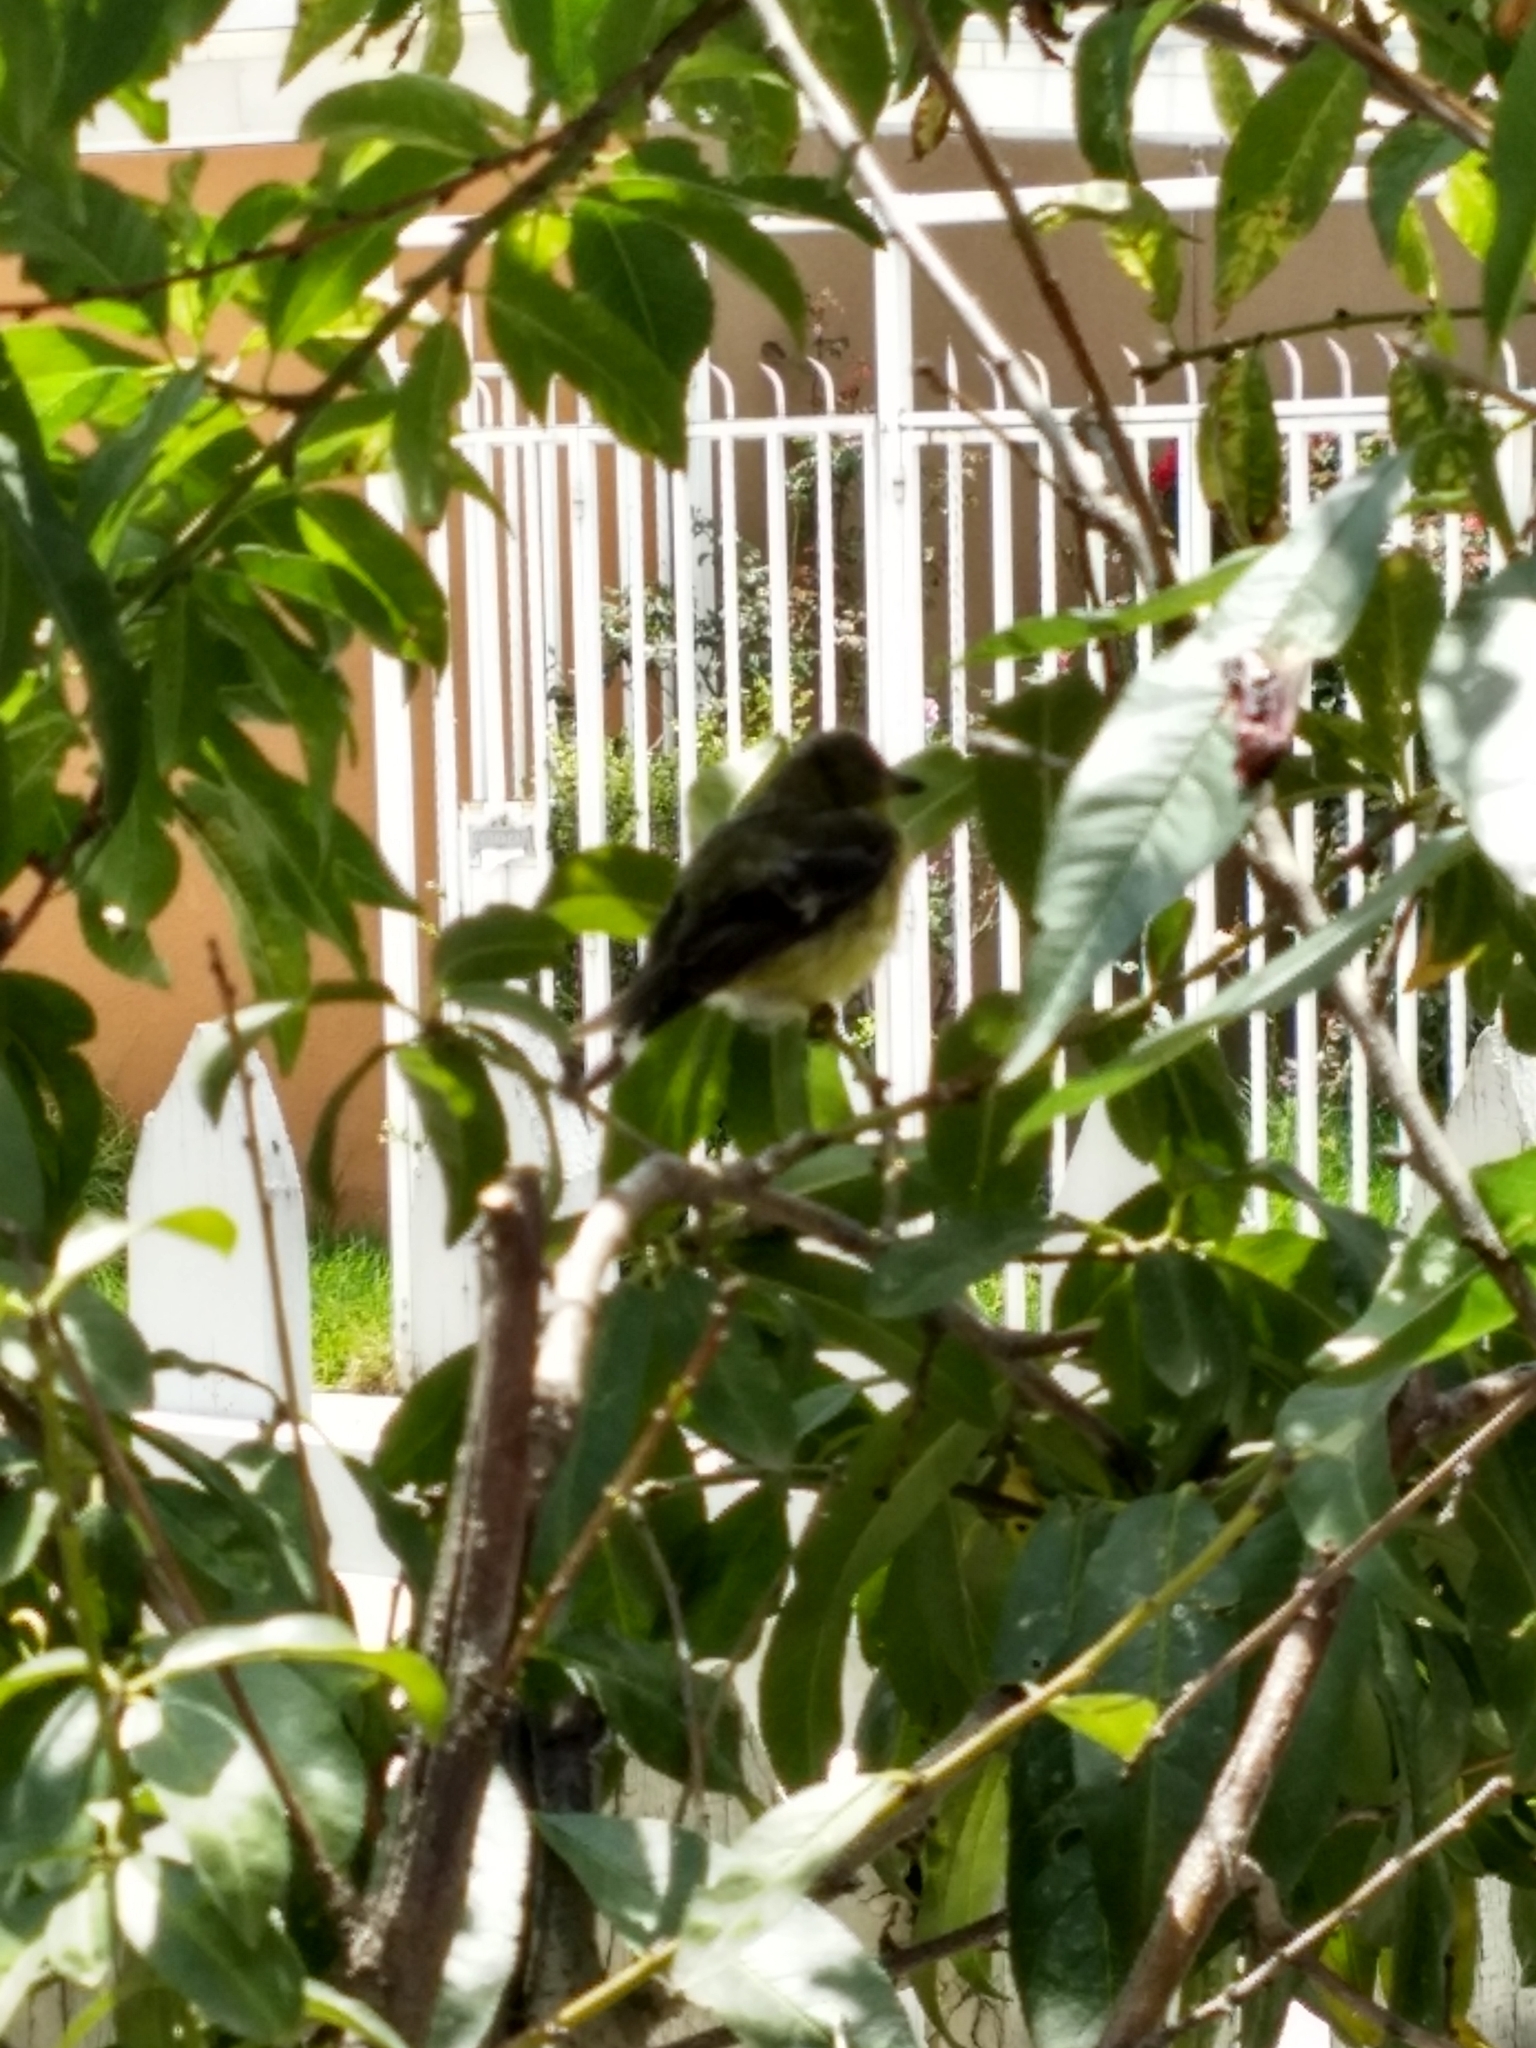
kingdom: Animalia
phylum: Chordata
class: Aves
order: Passeriformes
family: Fringillidae
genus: Spinus
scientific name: Spinus psaltria
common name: Lesser goldfinch
